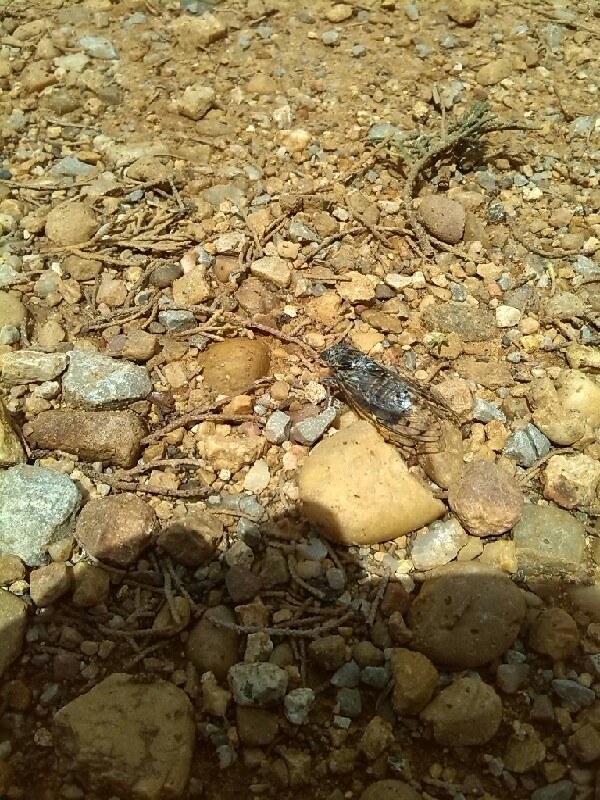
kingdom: Animalia
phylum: Arthropoda
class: Insecta
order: Hemiptera
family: Cicadidae
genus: Cicada
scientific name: Cicada orni
